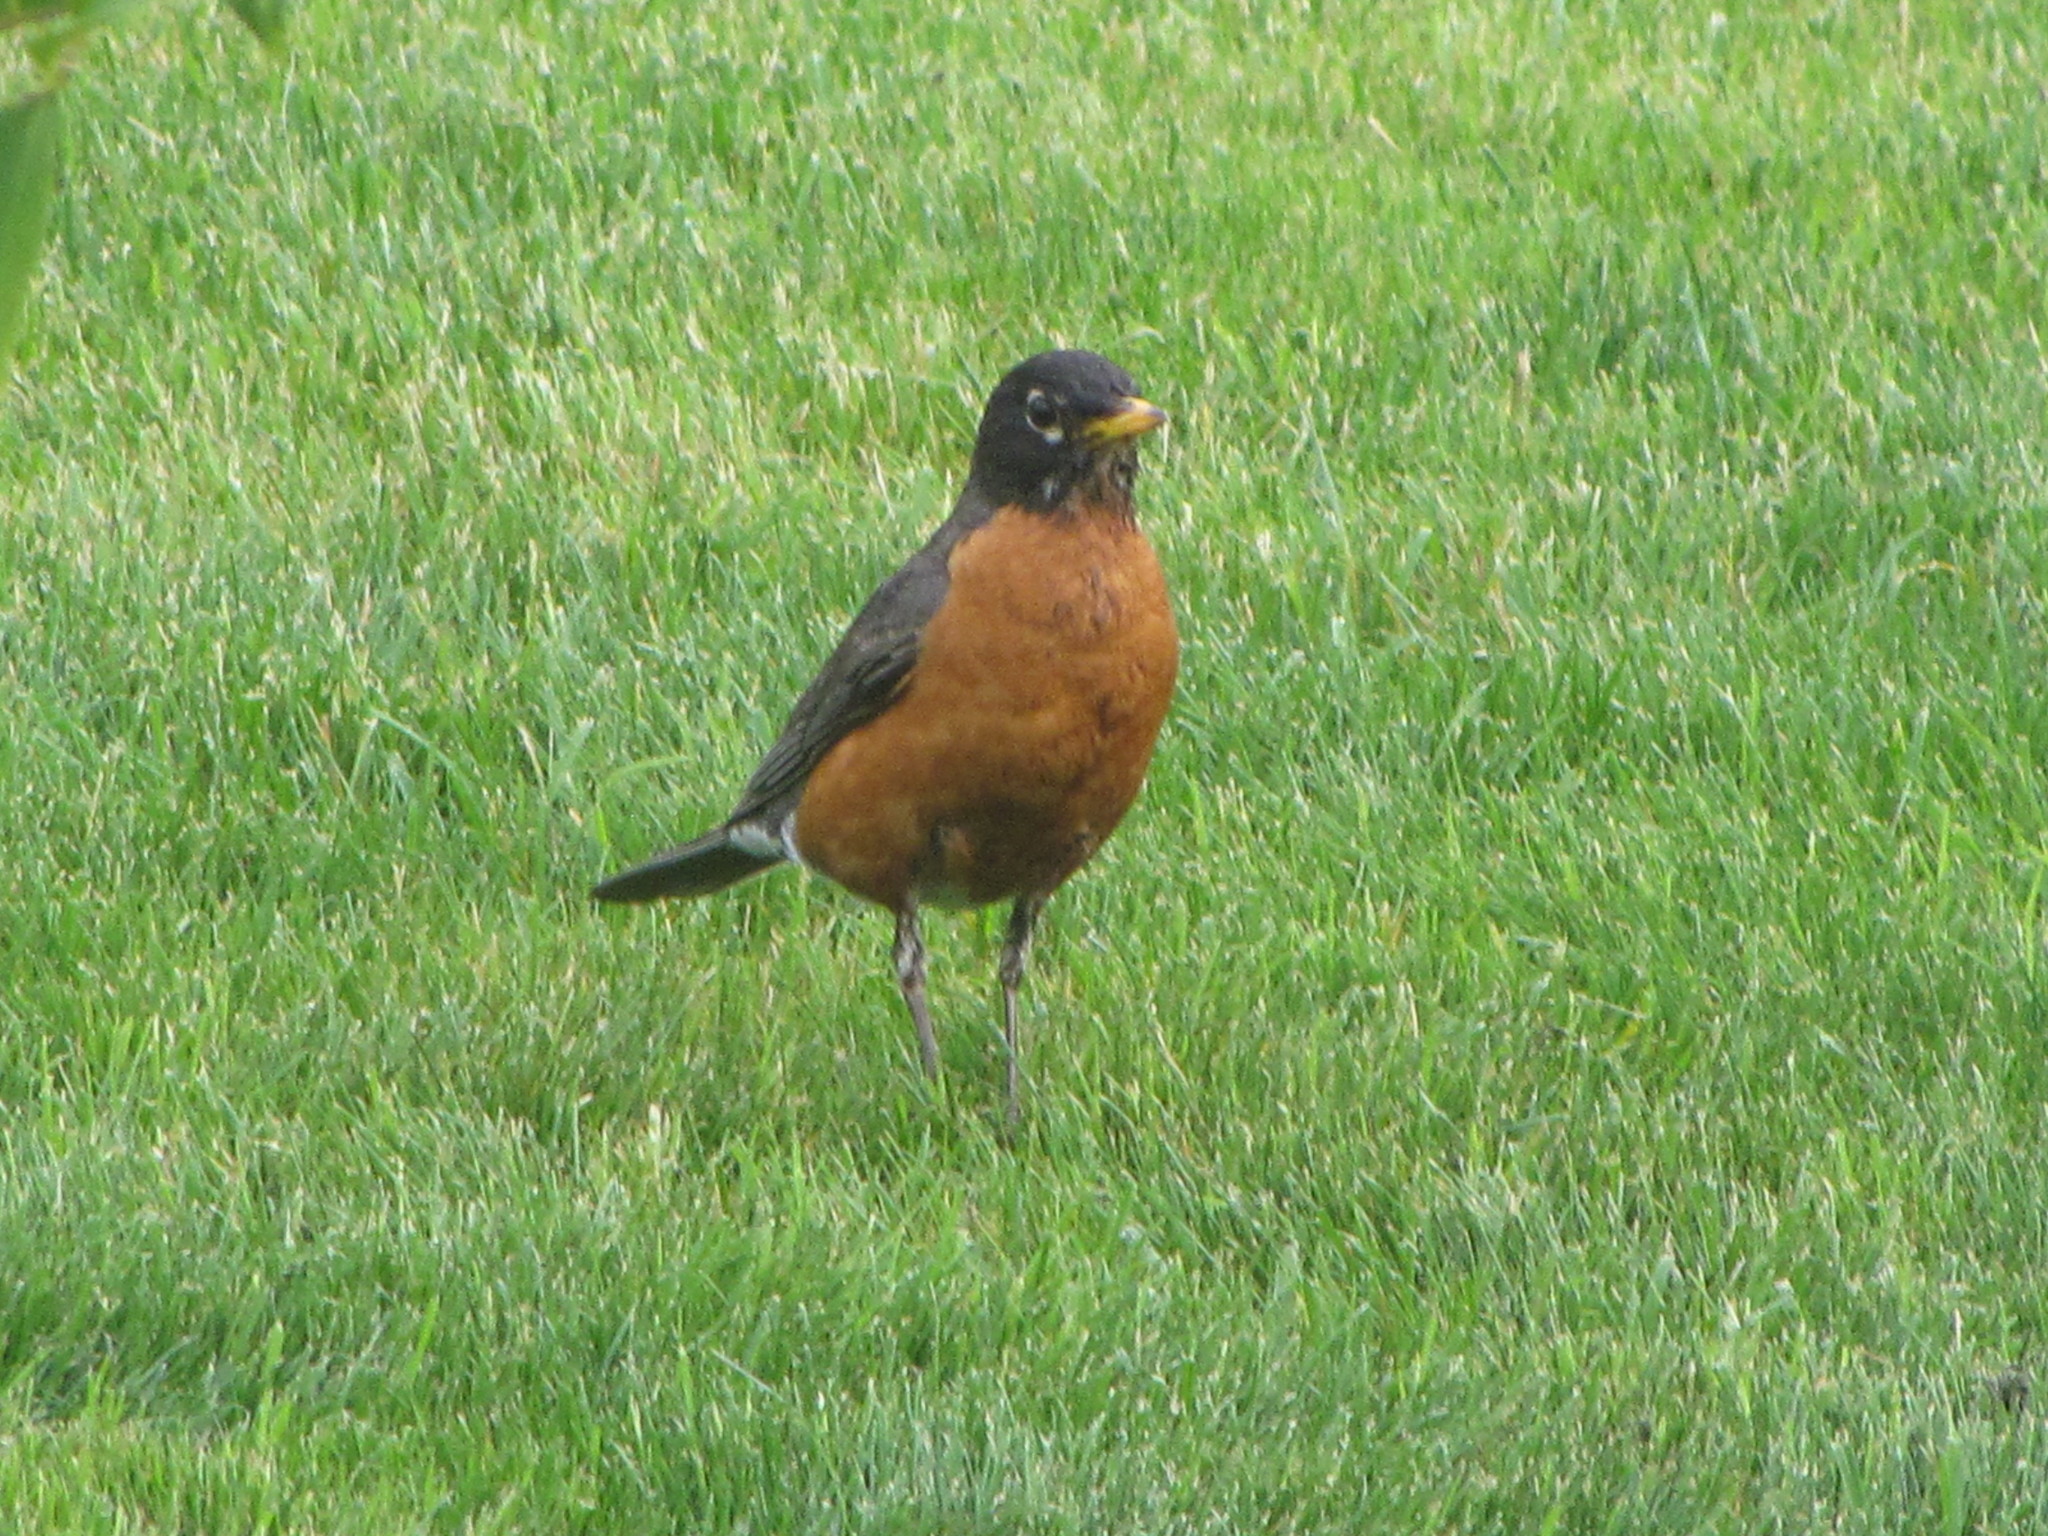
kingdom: Animalia
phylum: Chordata
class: Aves
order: Passeriformes
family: Turdidae
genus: Turdus
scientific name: Turdus migratorius
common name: American robin
